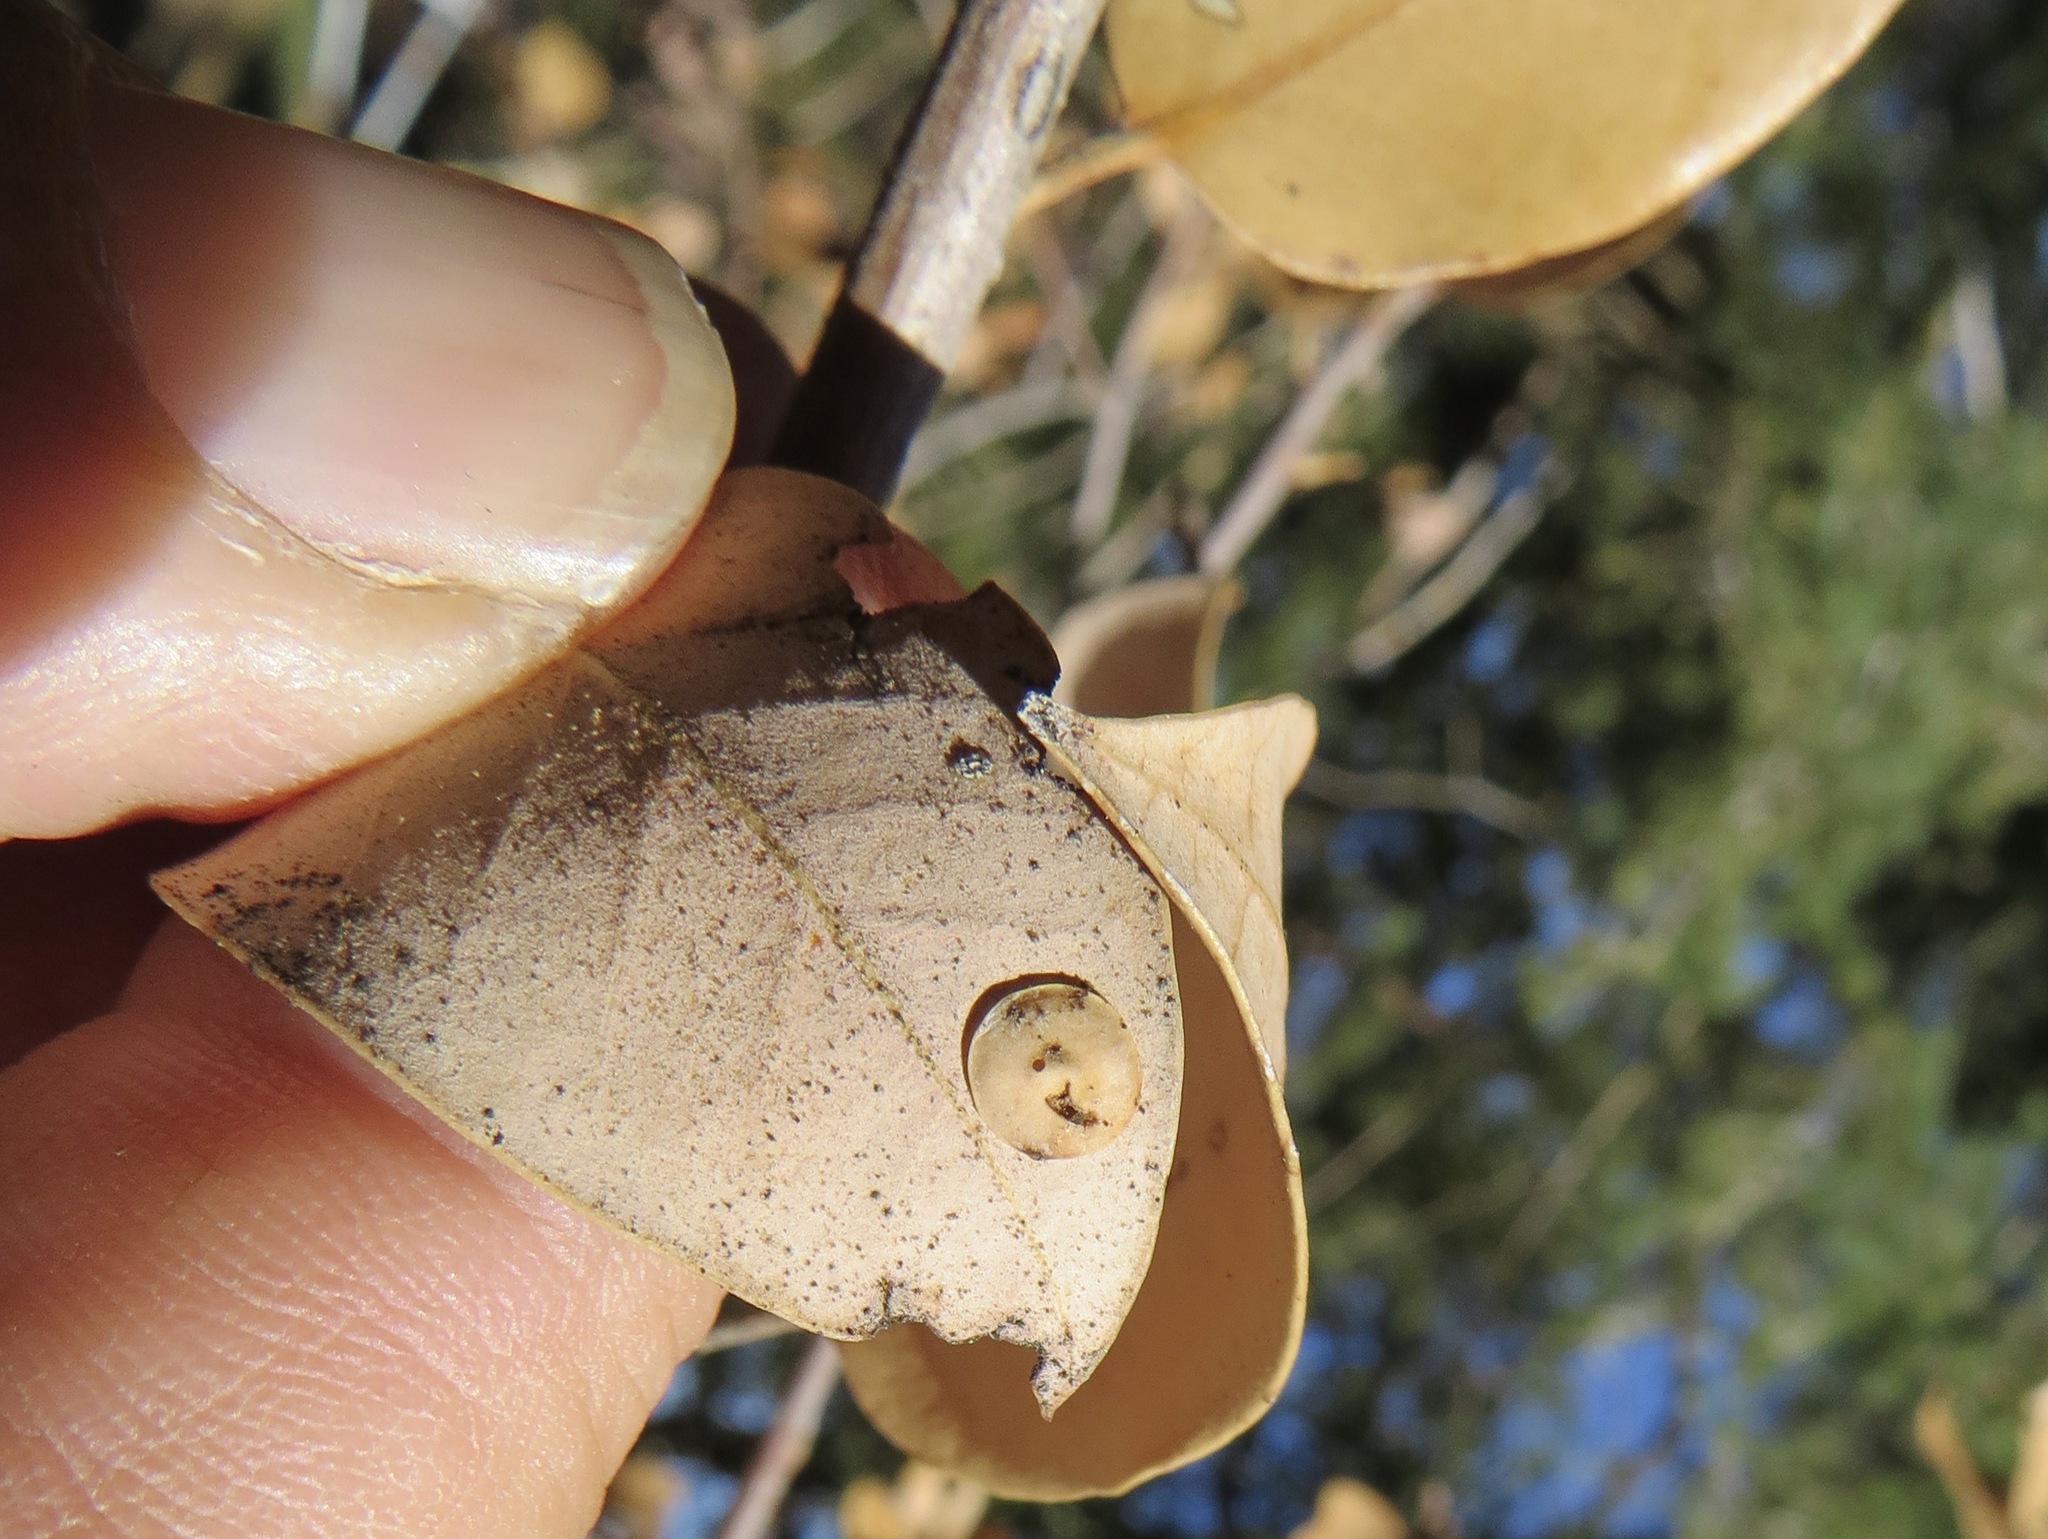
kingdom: Animalia
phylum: Arthropoda
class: Insecta
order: Hymenoptera
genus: Paracraspis
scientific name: Paracraspis
